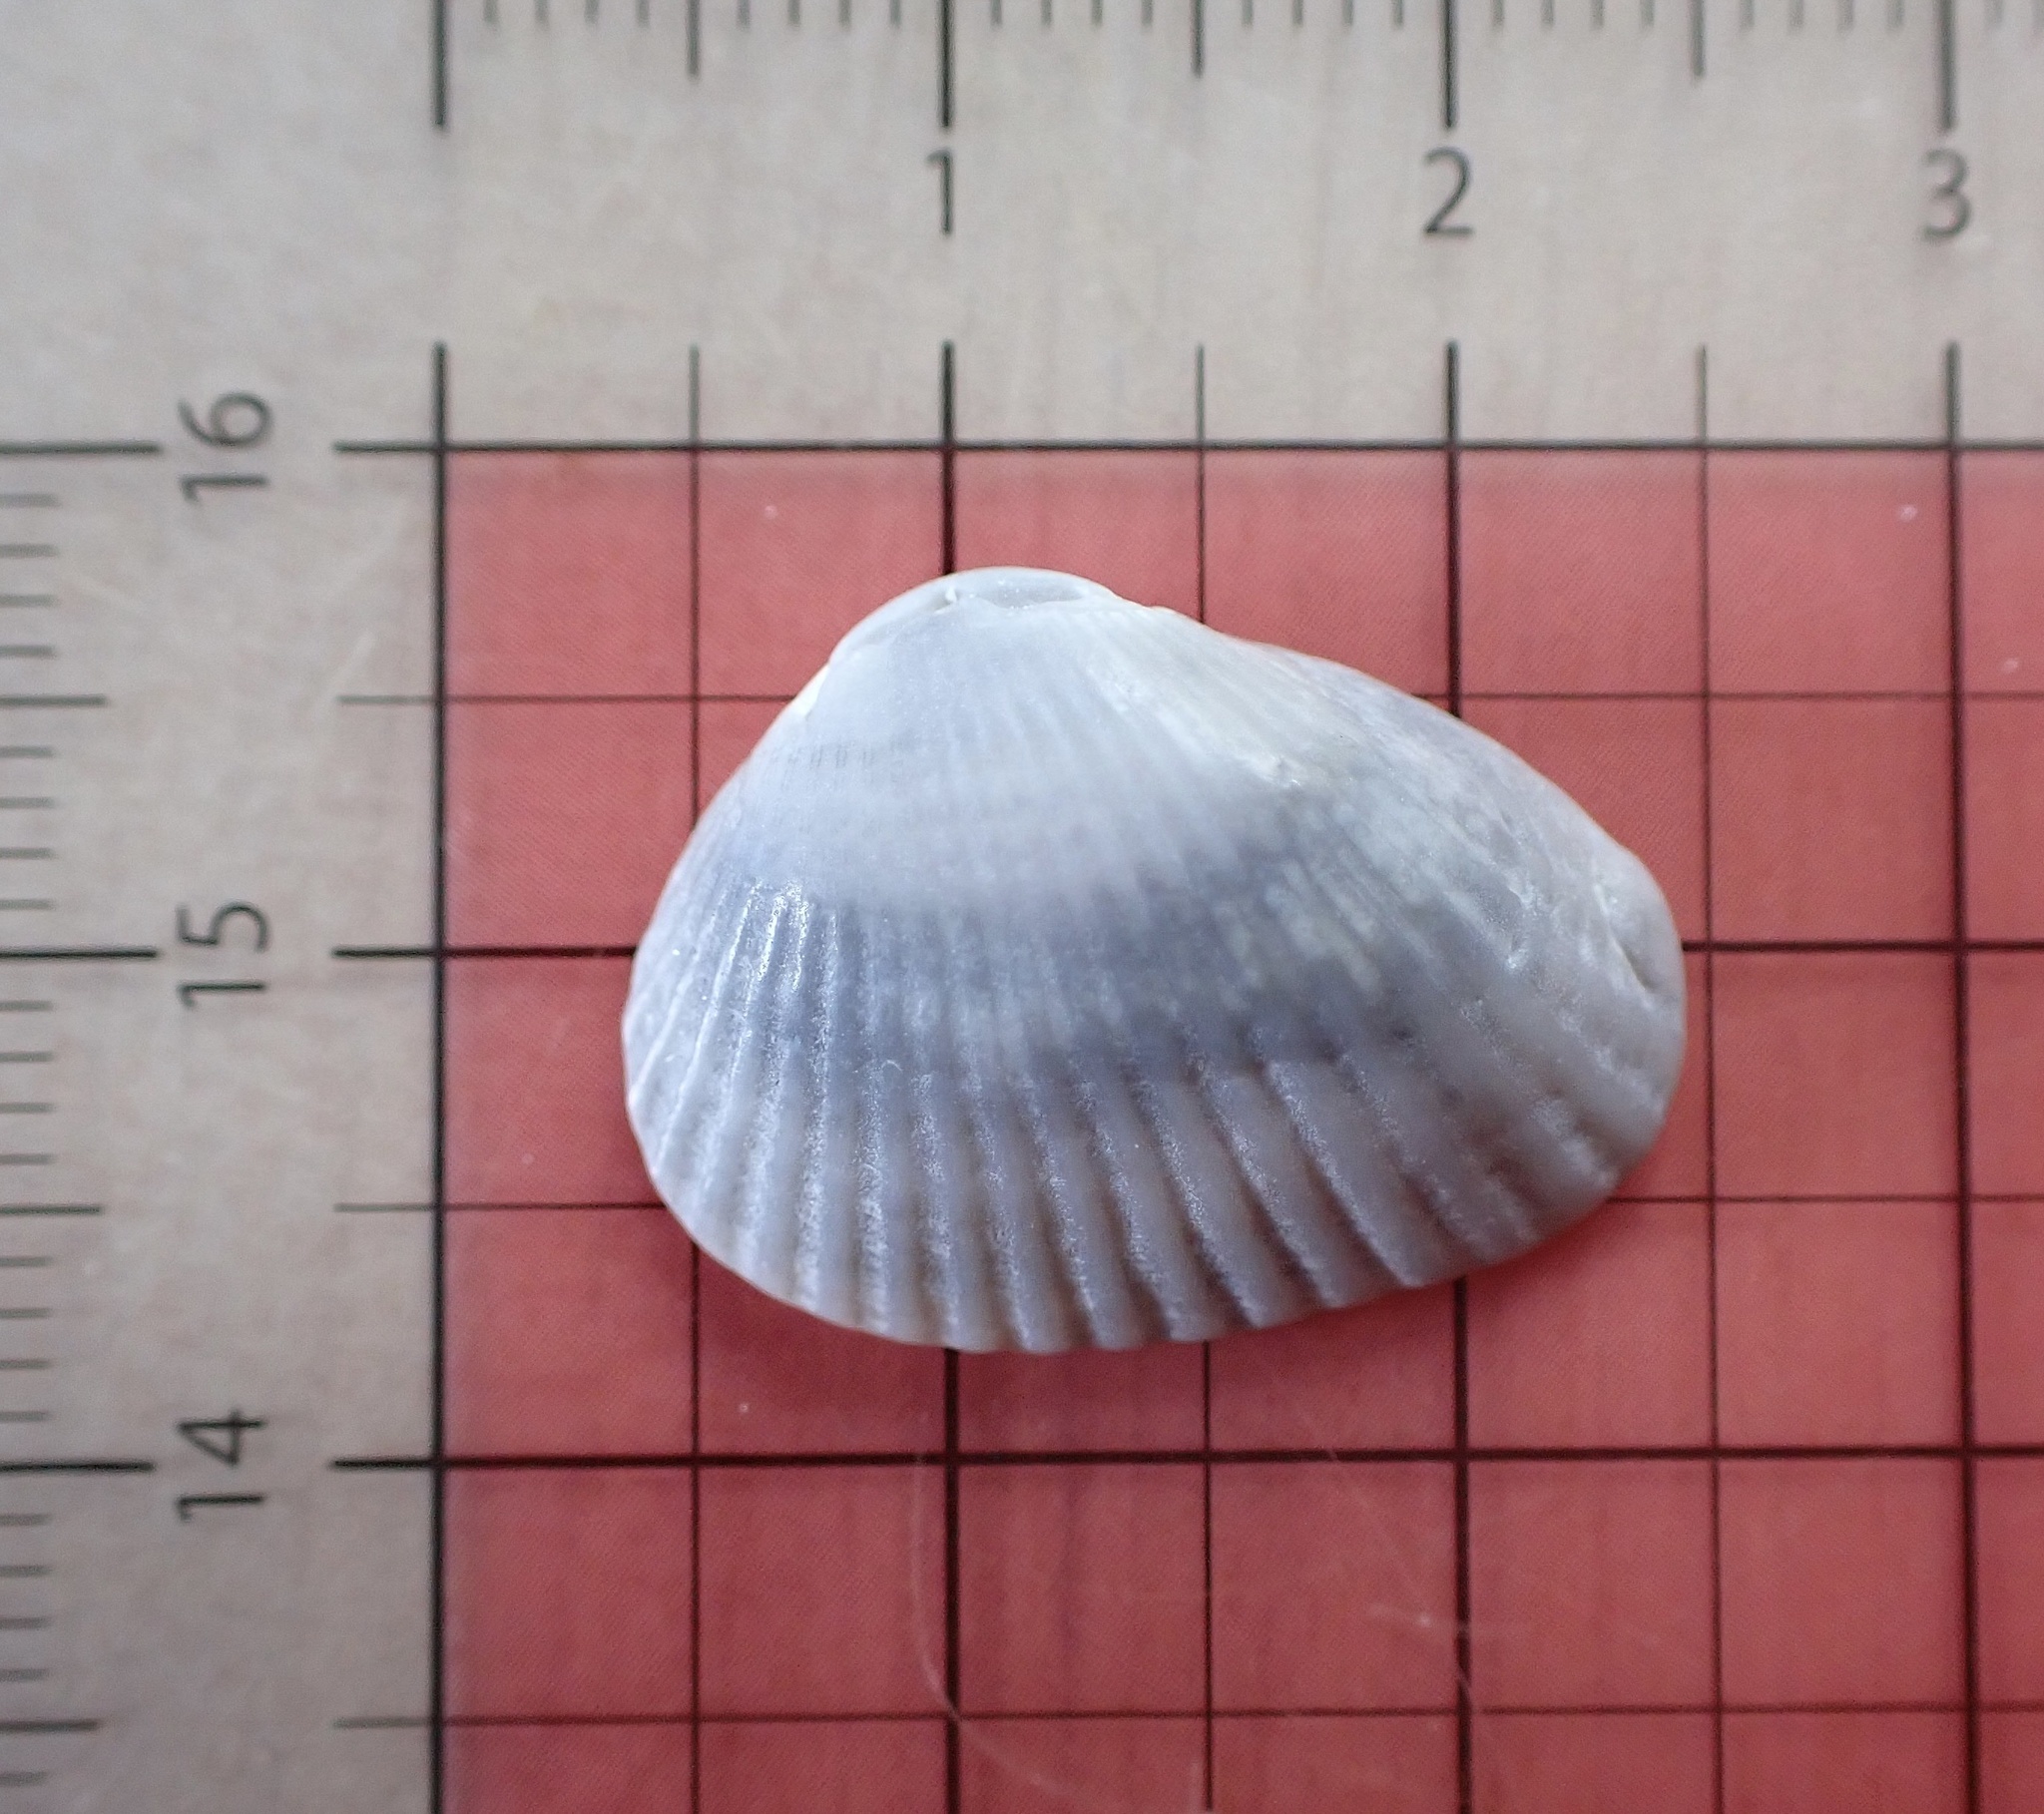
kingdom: Animalia
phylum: Mollusca
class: Bivalvia
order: Arcida
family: Arcidae
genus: Anadara
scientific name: Anadara transversa
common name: Transverse ark
